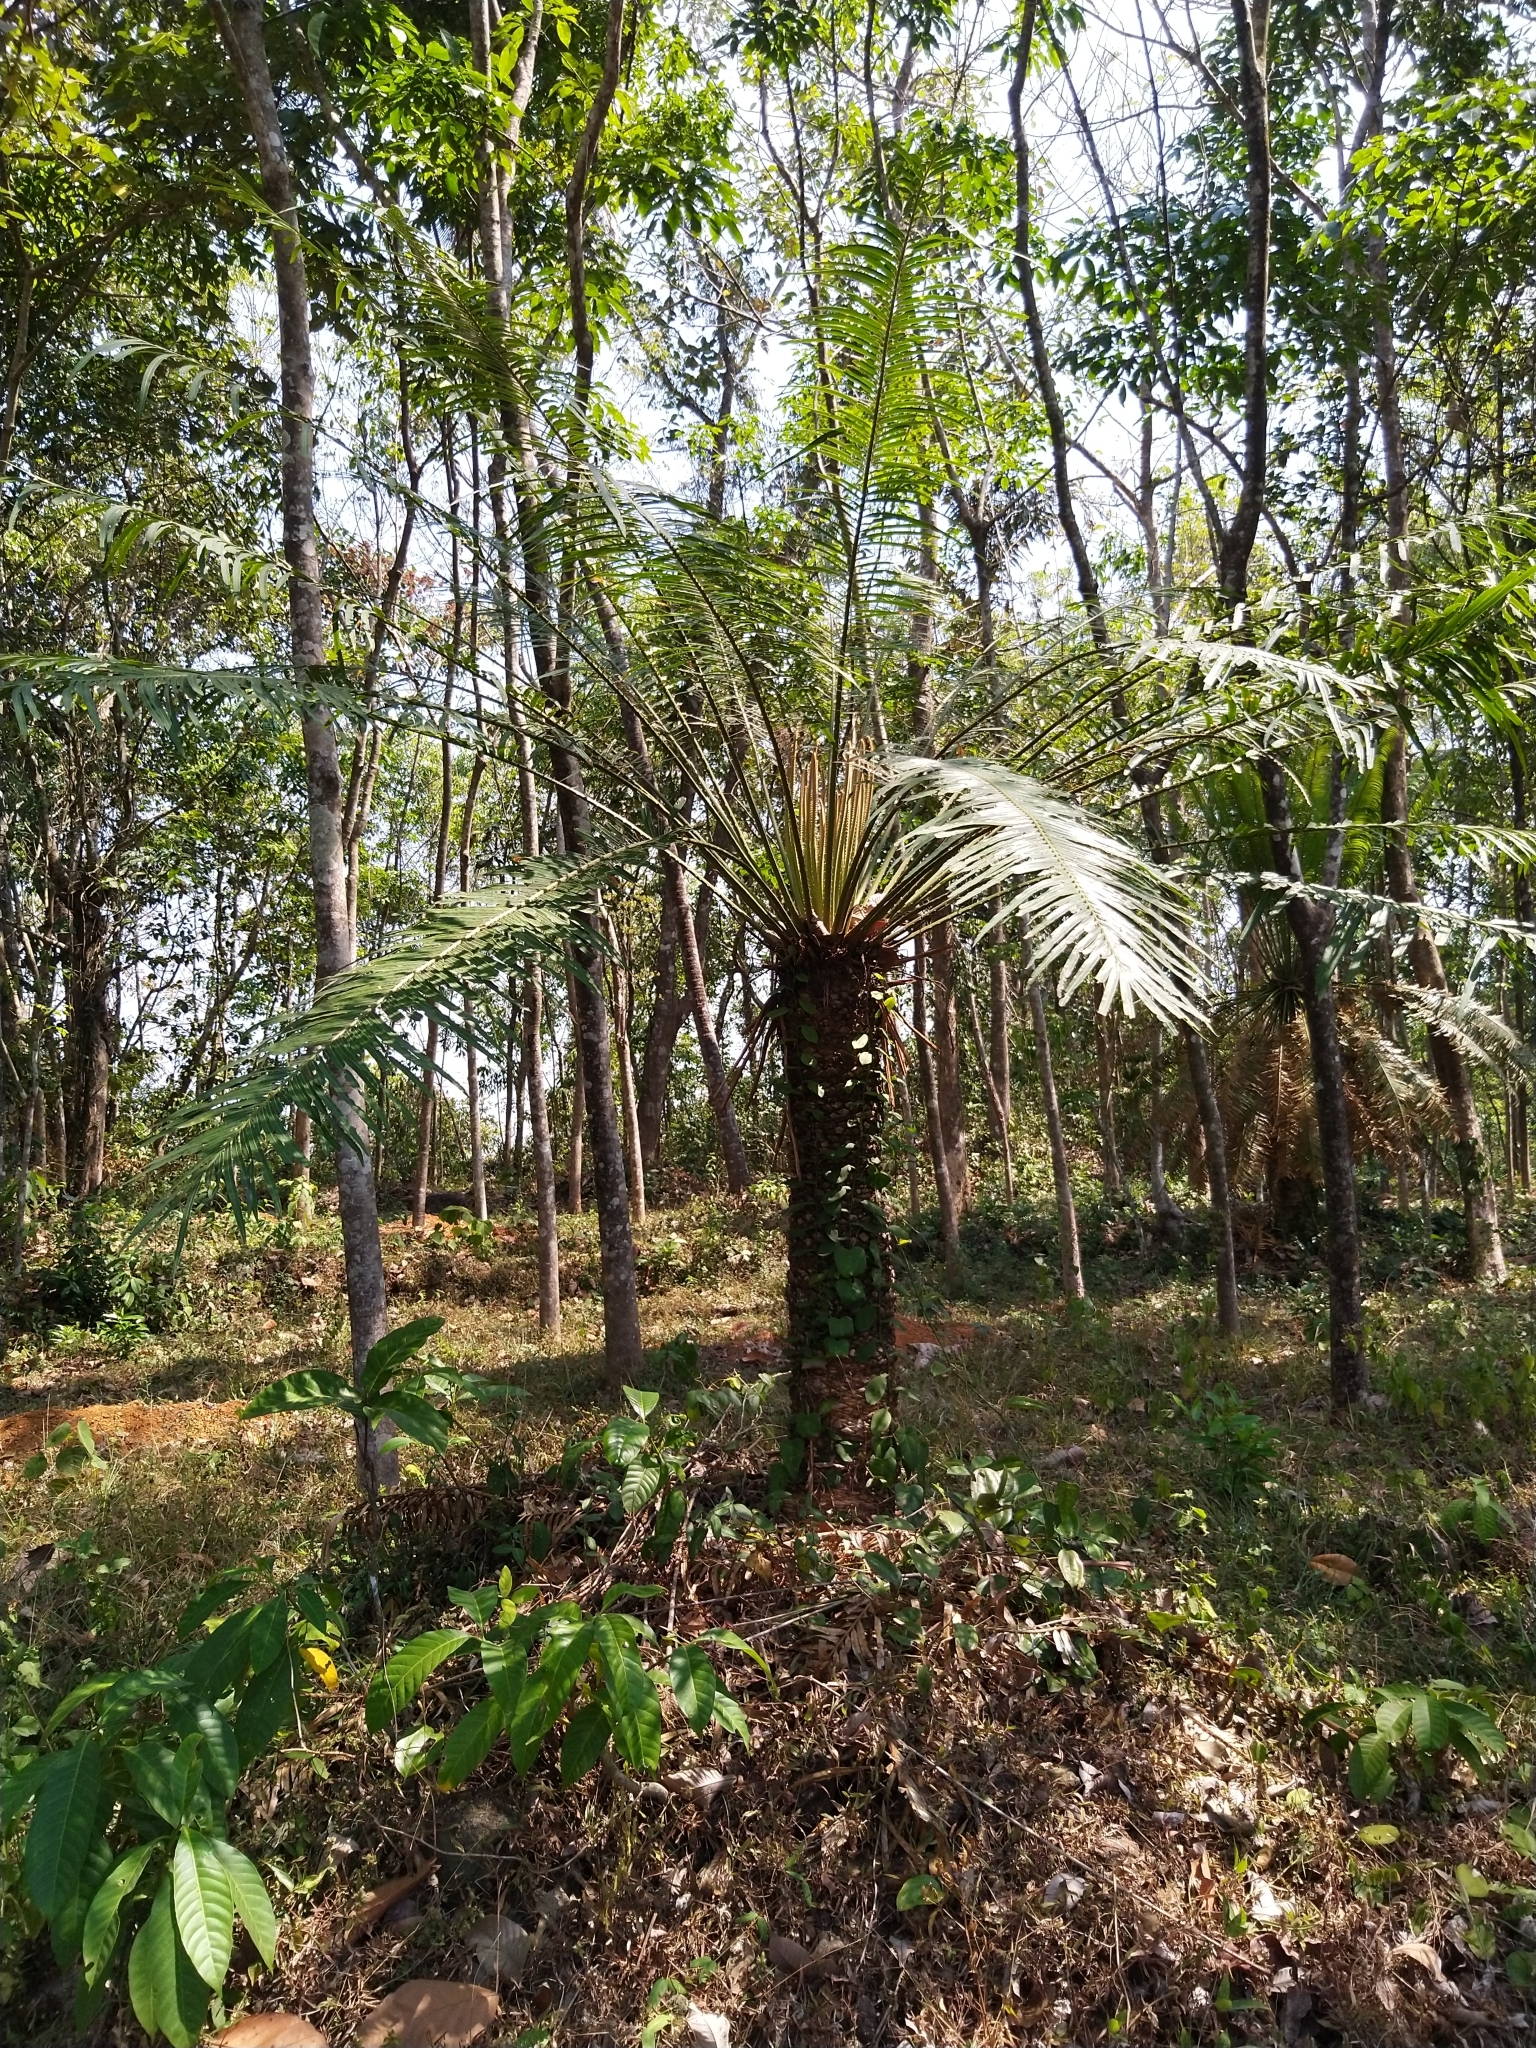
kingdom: Plantae
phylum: Tracheophyta
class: Cycadopsida
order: Cycadales
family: Cycadaceae
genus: Cycas
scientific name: Cycas circinalis
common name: Queen sago
